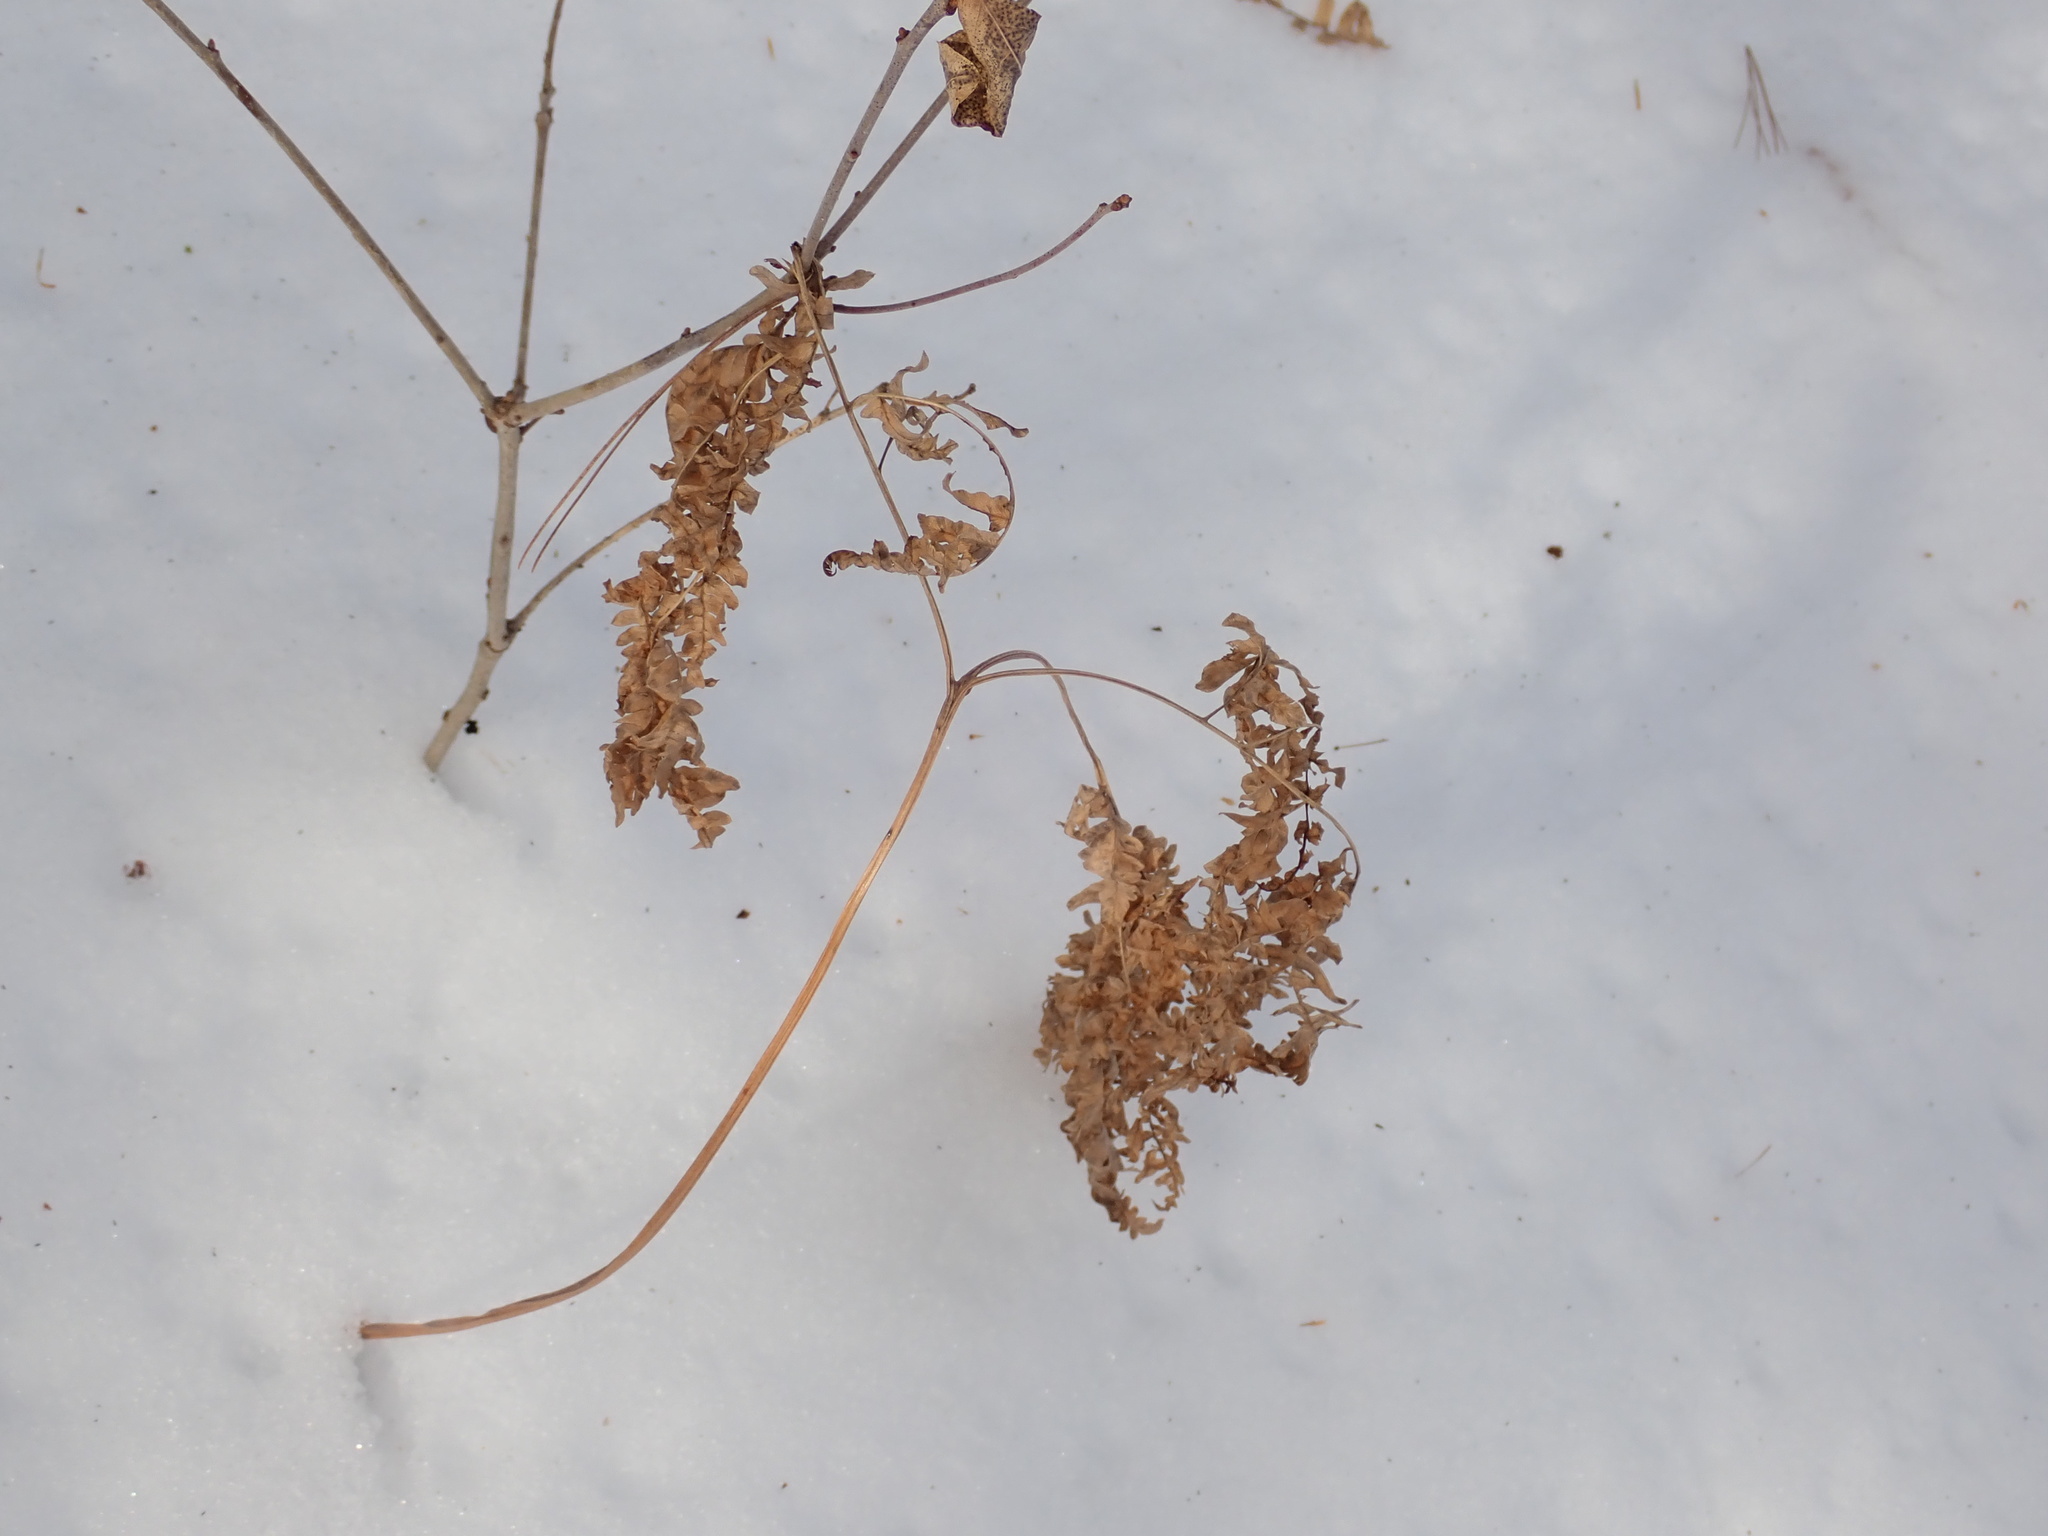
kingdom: Plantae
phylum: Tracheophyta
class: Polypodiopsida
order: Polypodiales
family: Dennstaedtiaceae
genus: Pteridium
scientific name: Pteridium aquilinum
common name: Bracken
